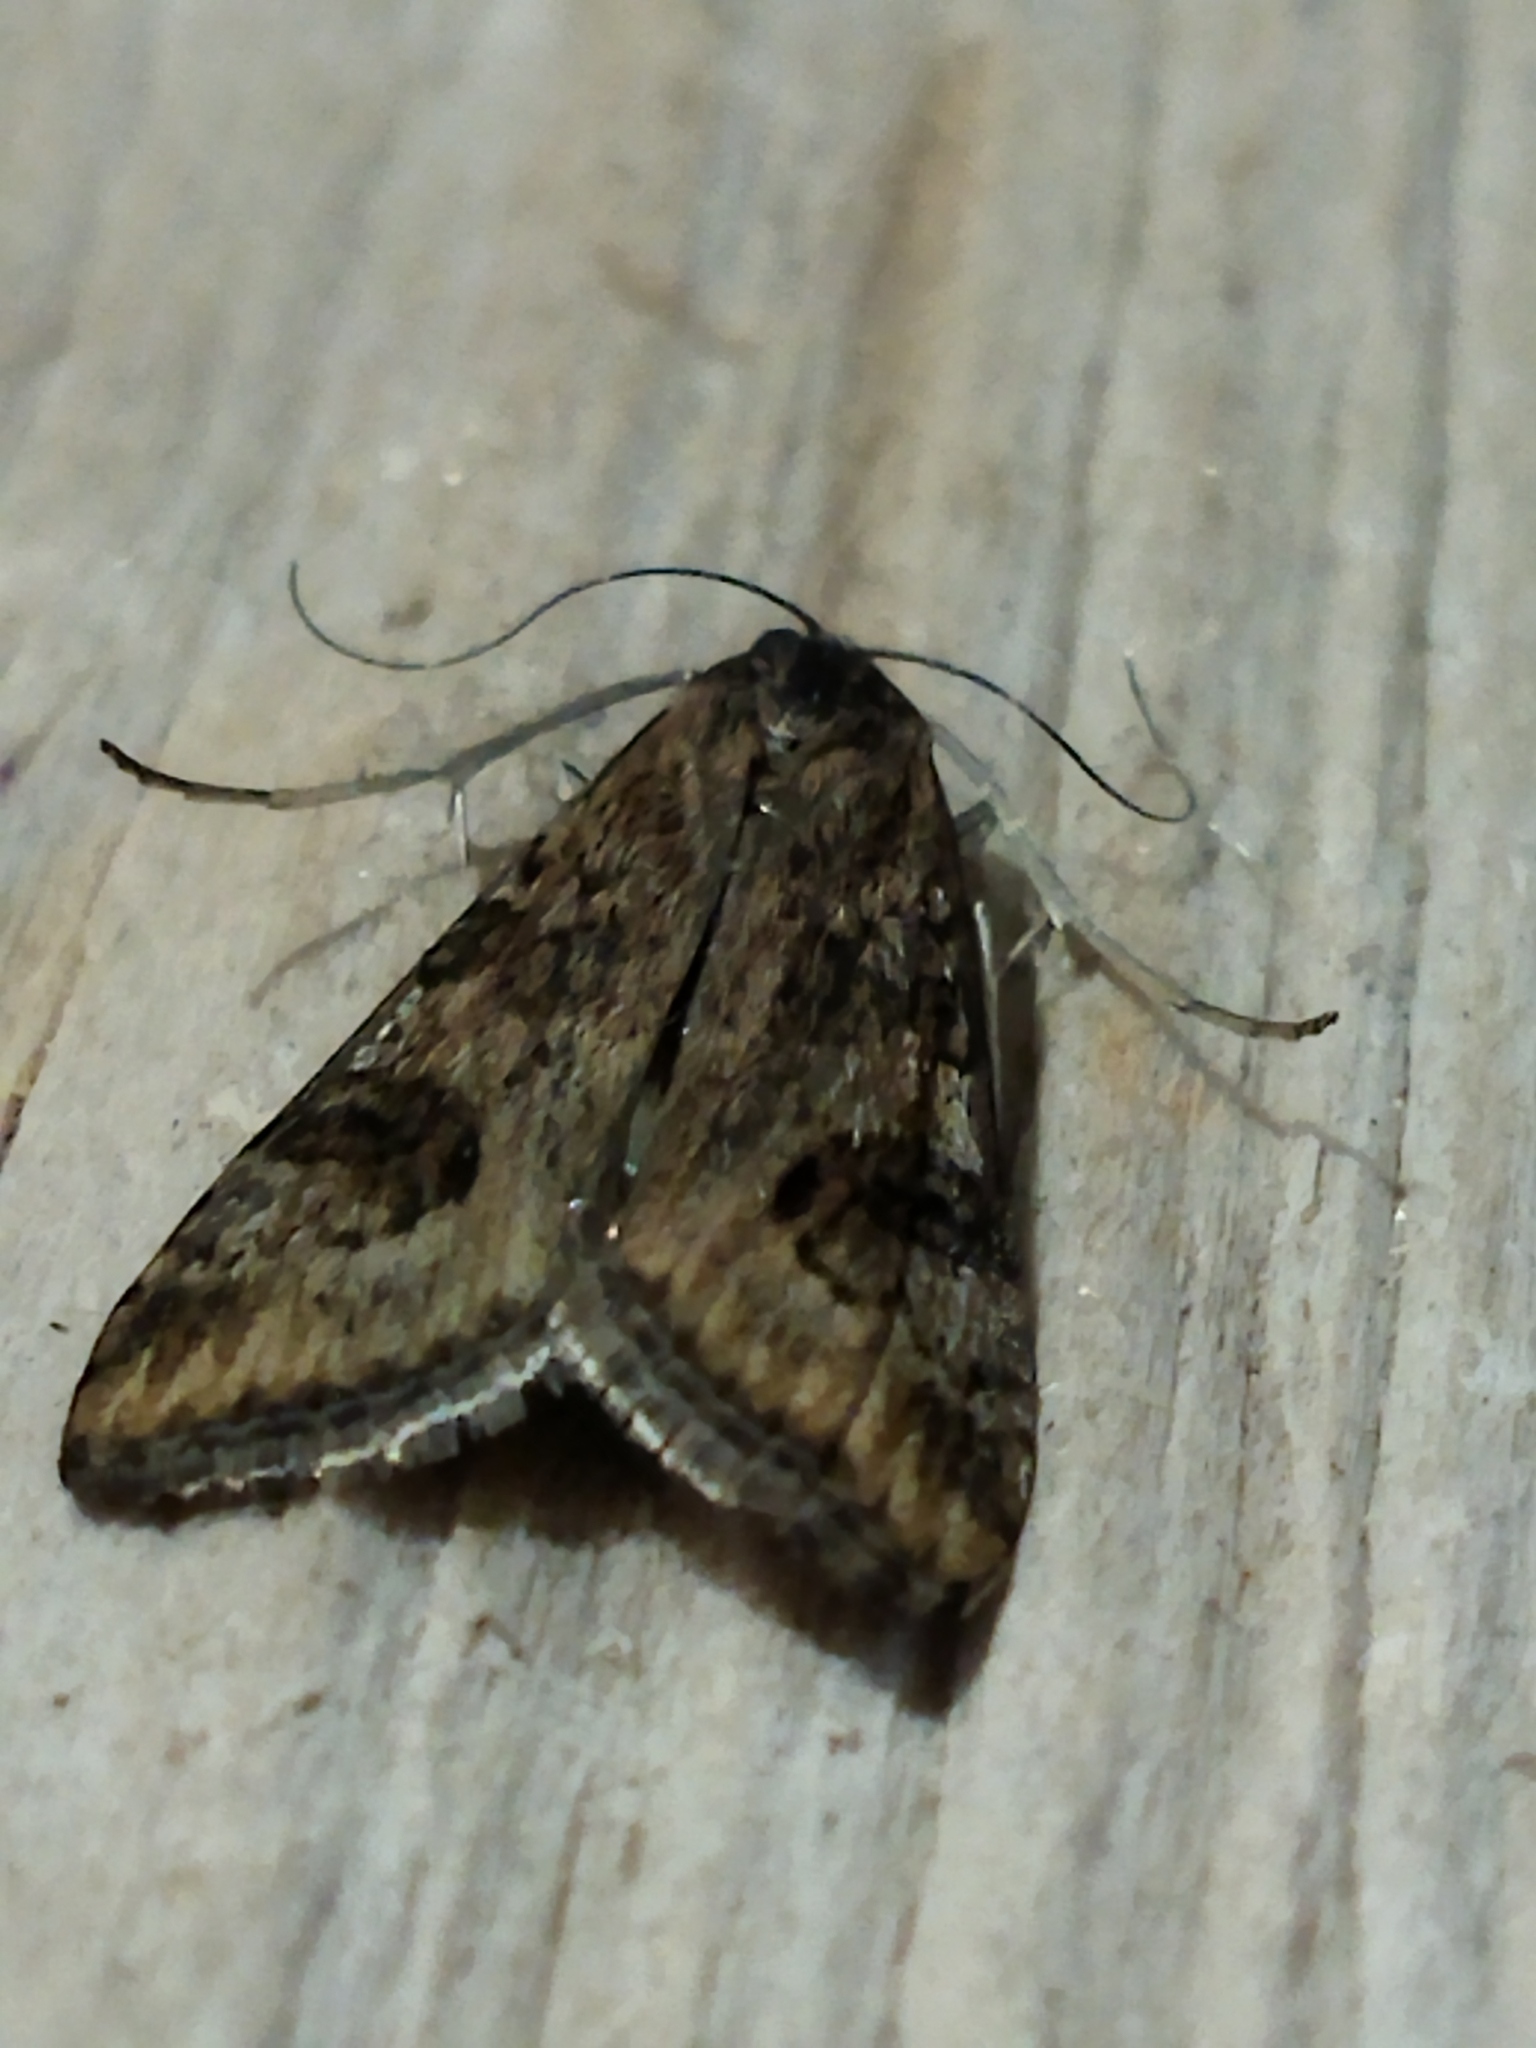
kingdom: Animalia
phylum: Arthropoda
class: Insecta
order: Lepidoptera
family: Crambidae
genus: Nomophila
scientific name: Nomophila noctuella
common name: Rush veneer
